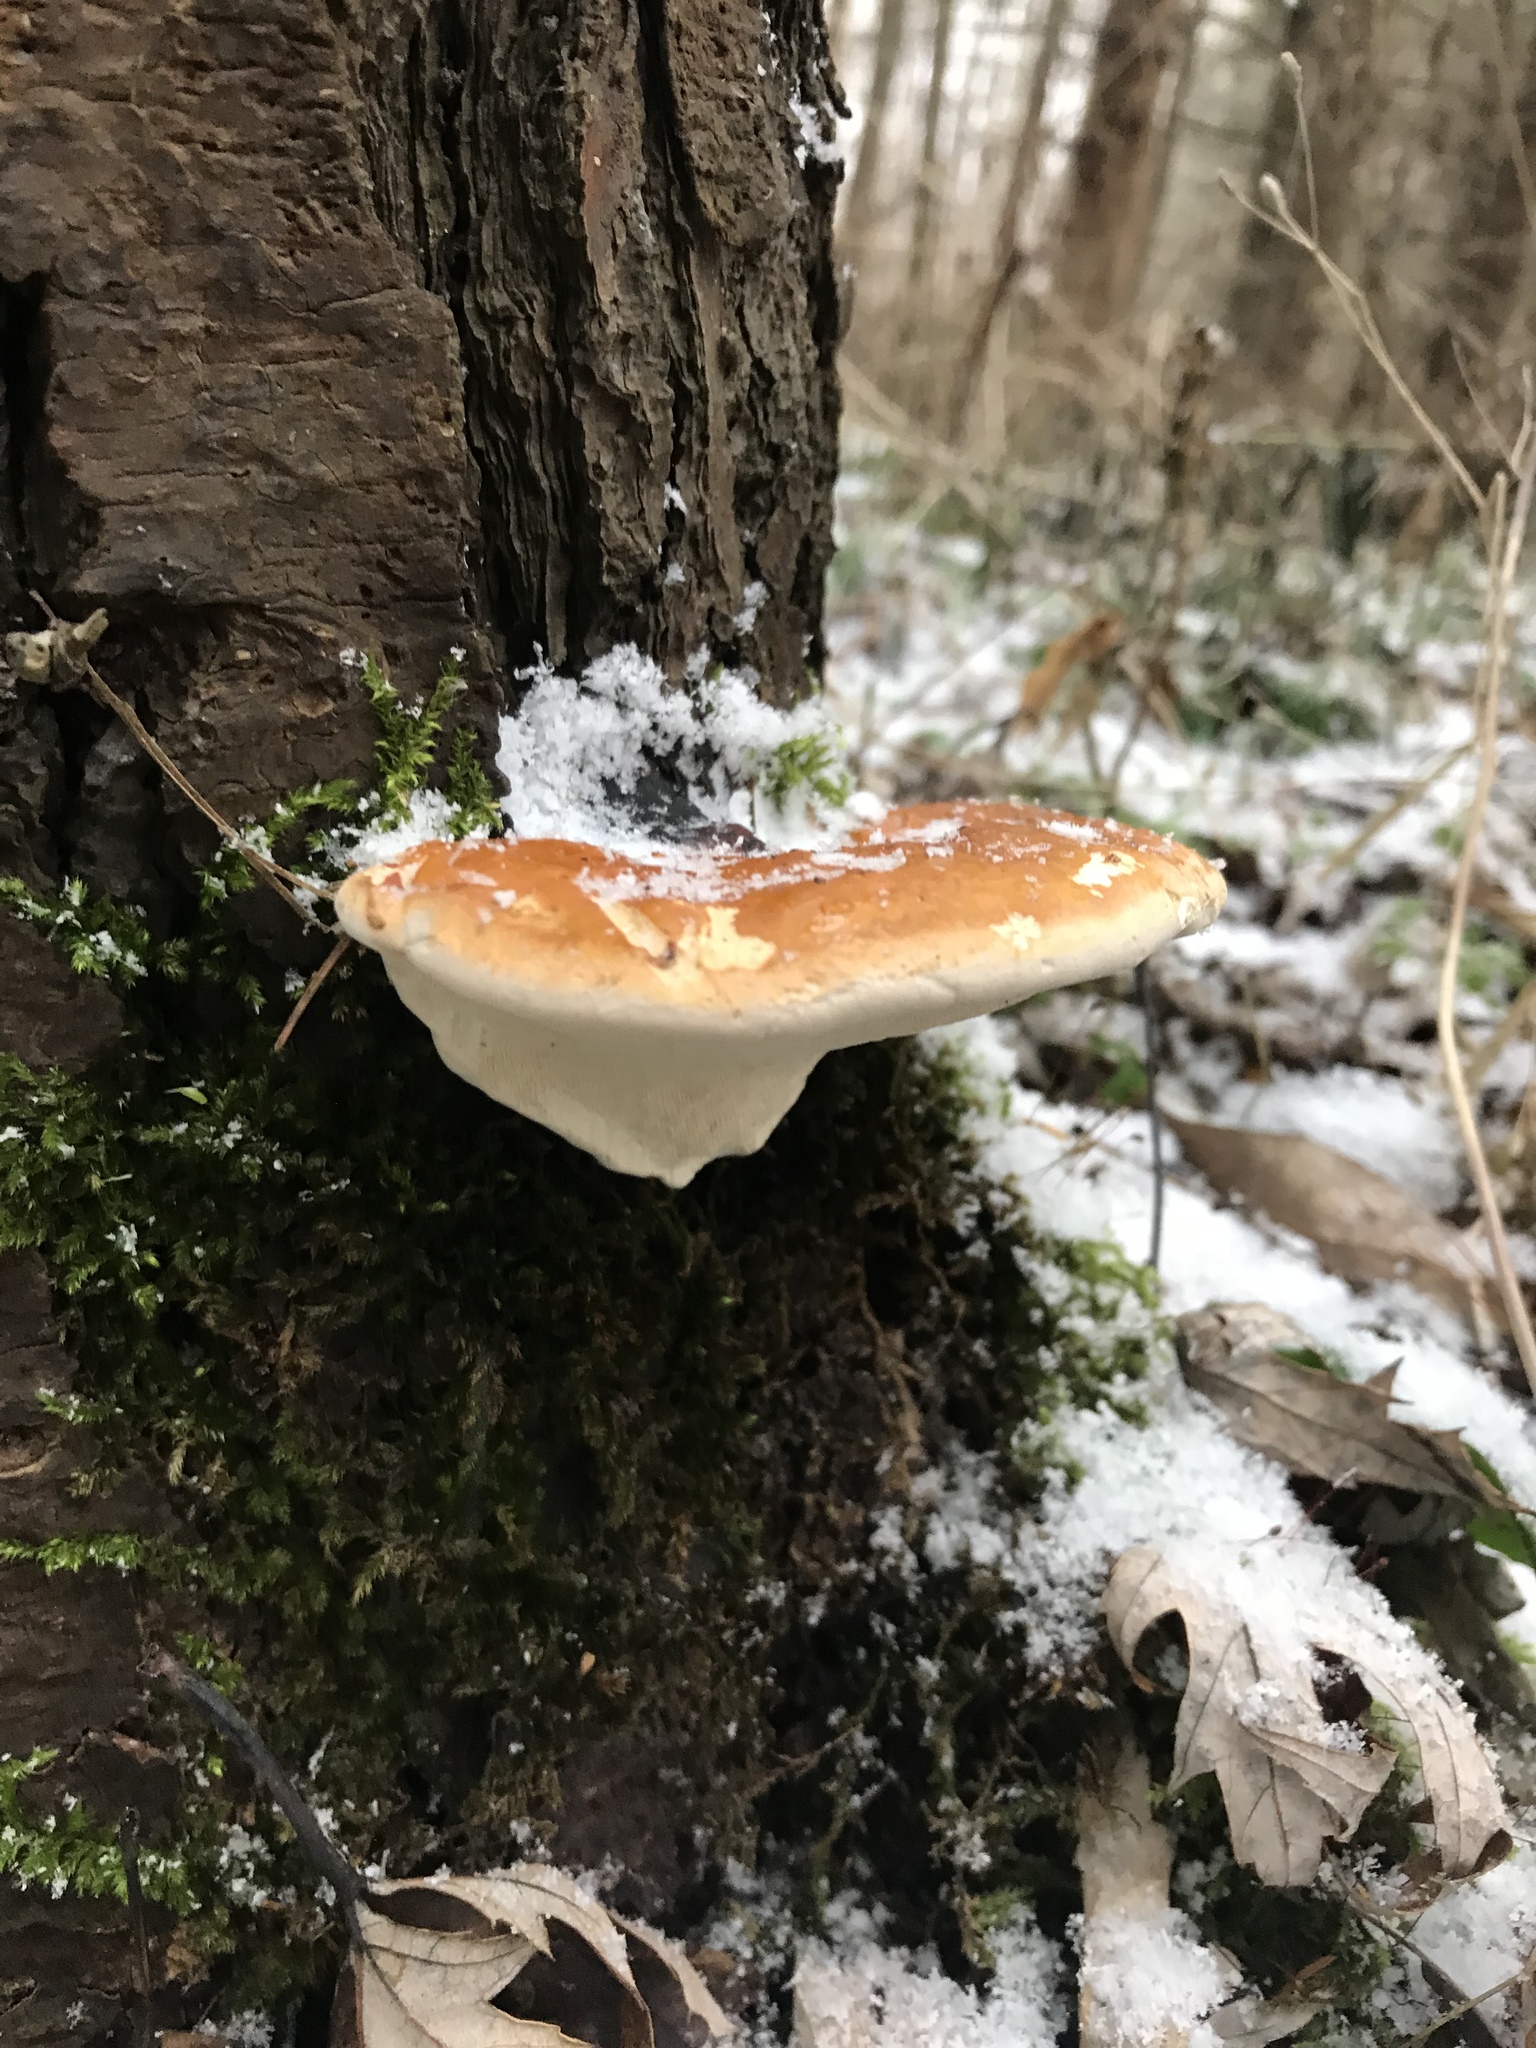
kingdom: Fungi
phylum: Basidiomycota
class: Agaricomycetes
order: Polyporales
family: Fomitopsidaceae
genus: Fomitopsis
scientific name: Fomitopsis mounceae
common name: Northern red belt
